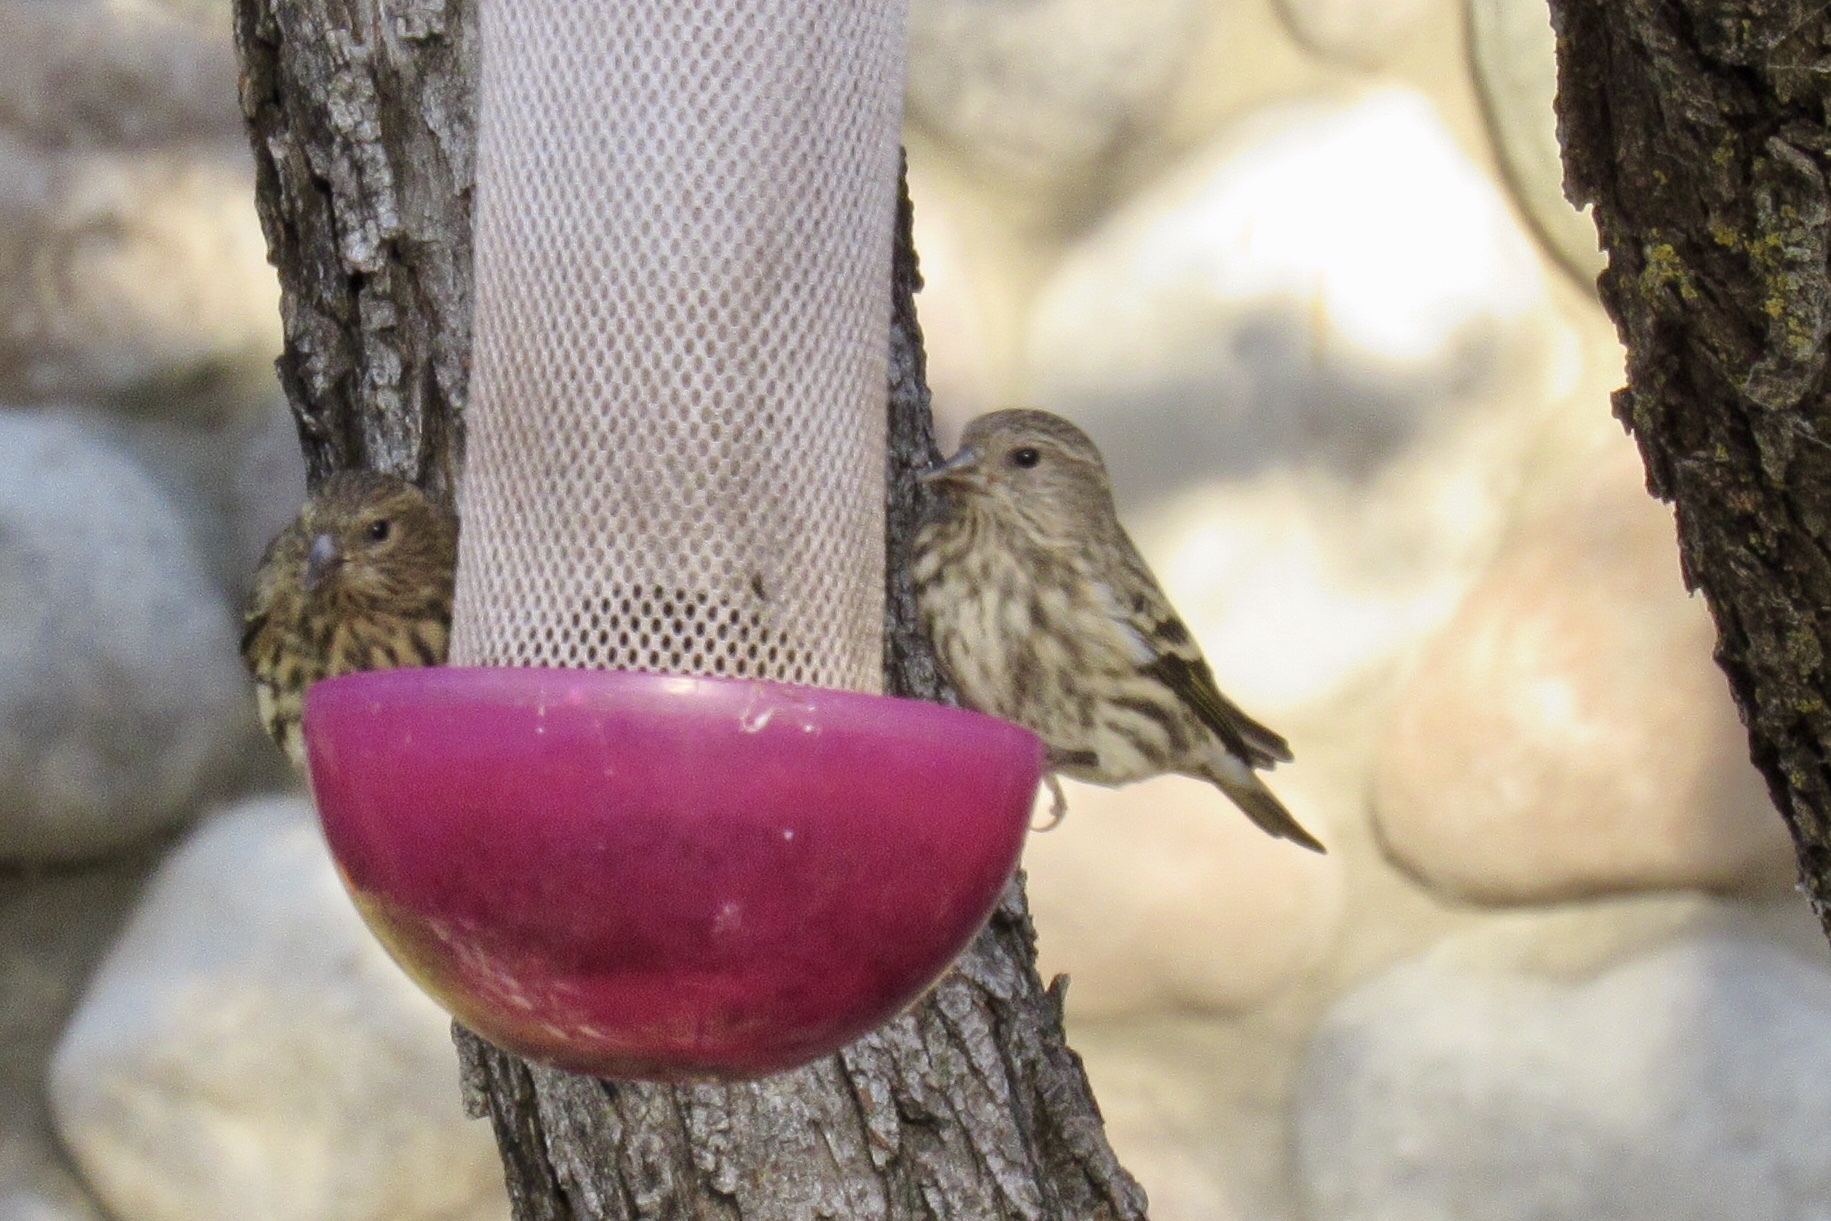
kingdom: Animalia
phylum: Chordata
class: Aves
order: Passeriformes
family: Fringillidae
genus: Spinus
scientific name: Spinus pinus
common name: Pine siskin
